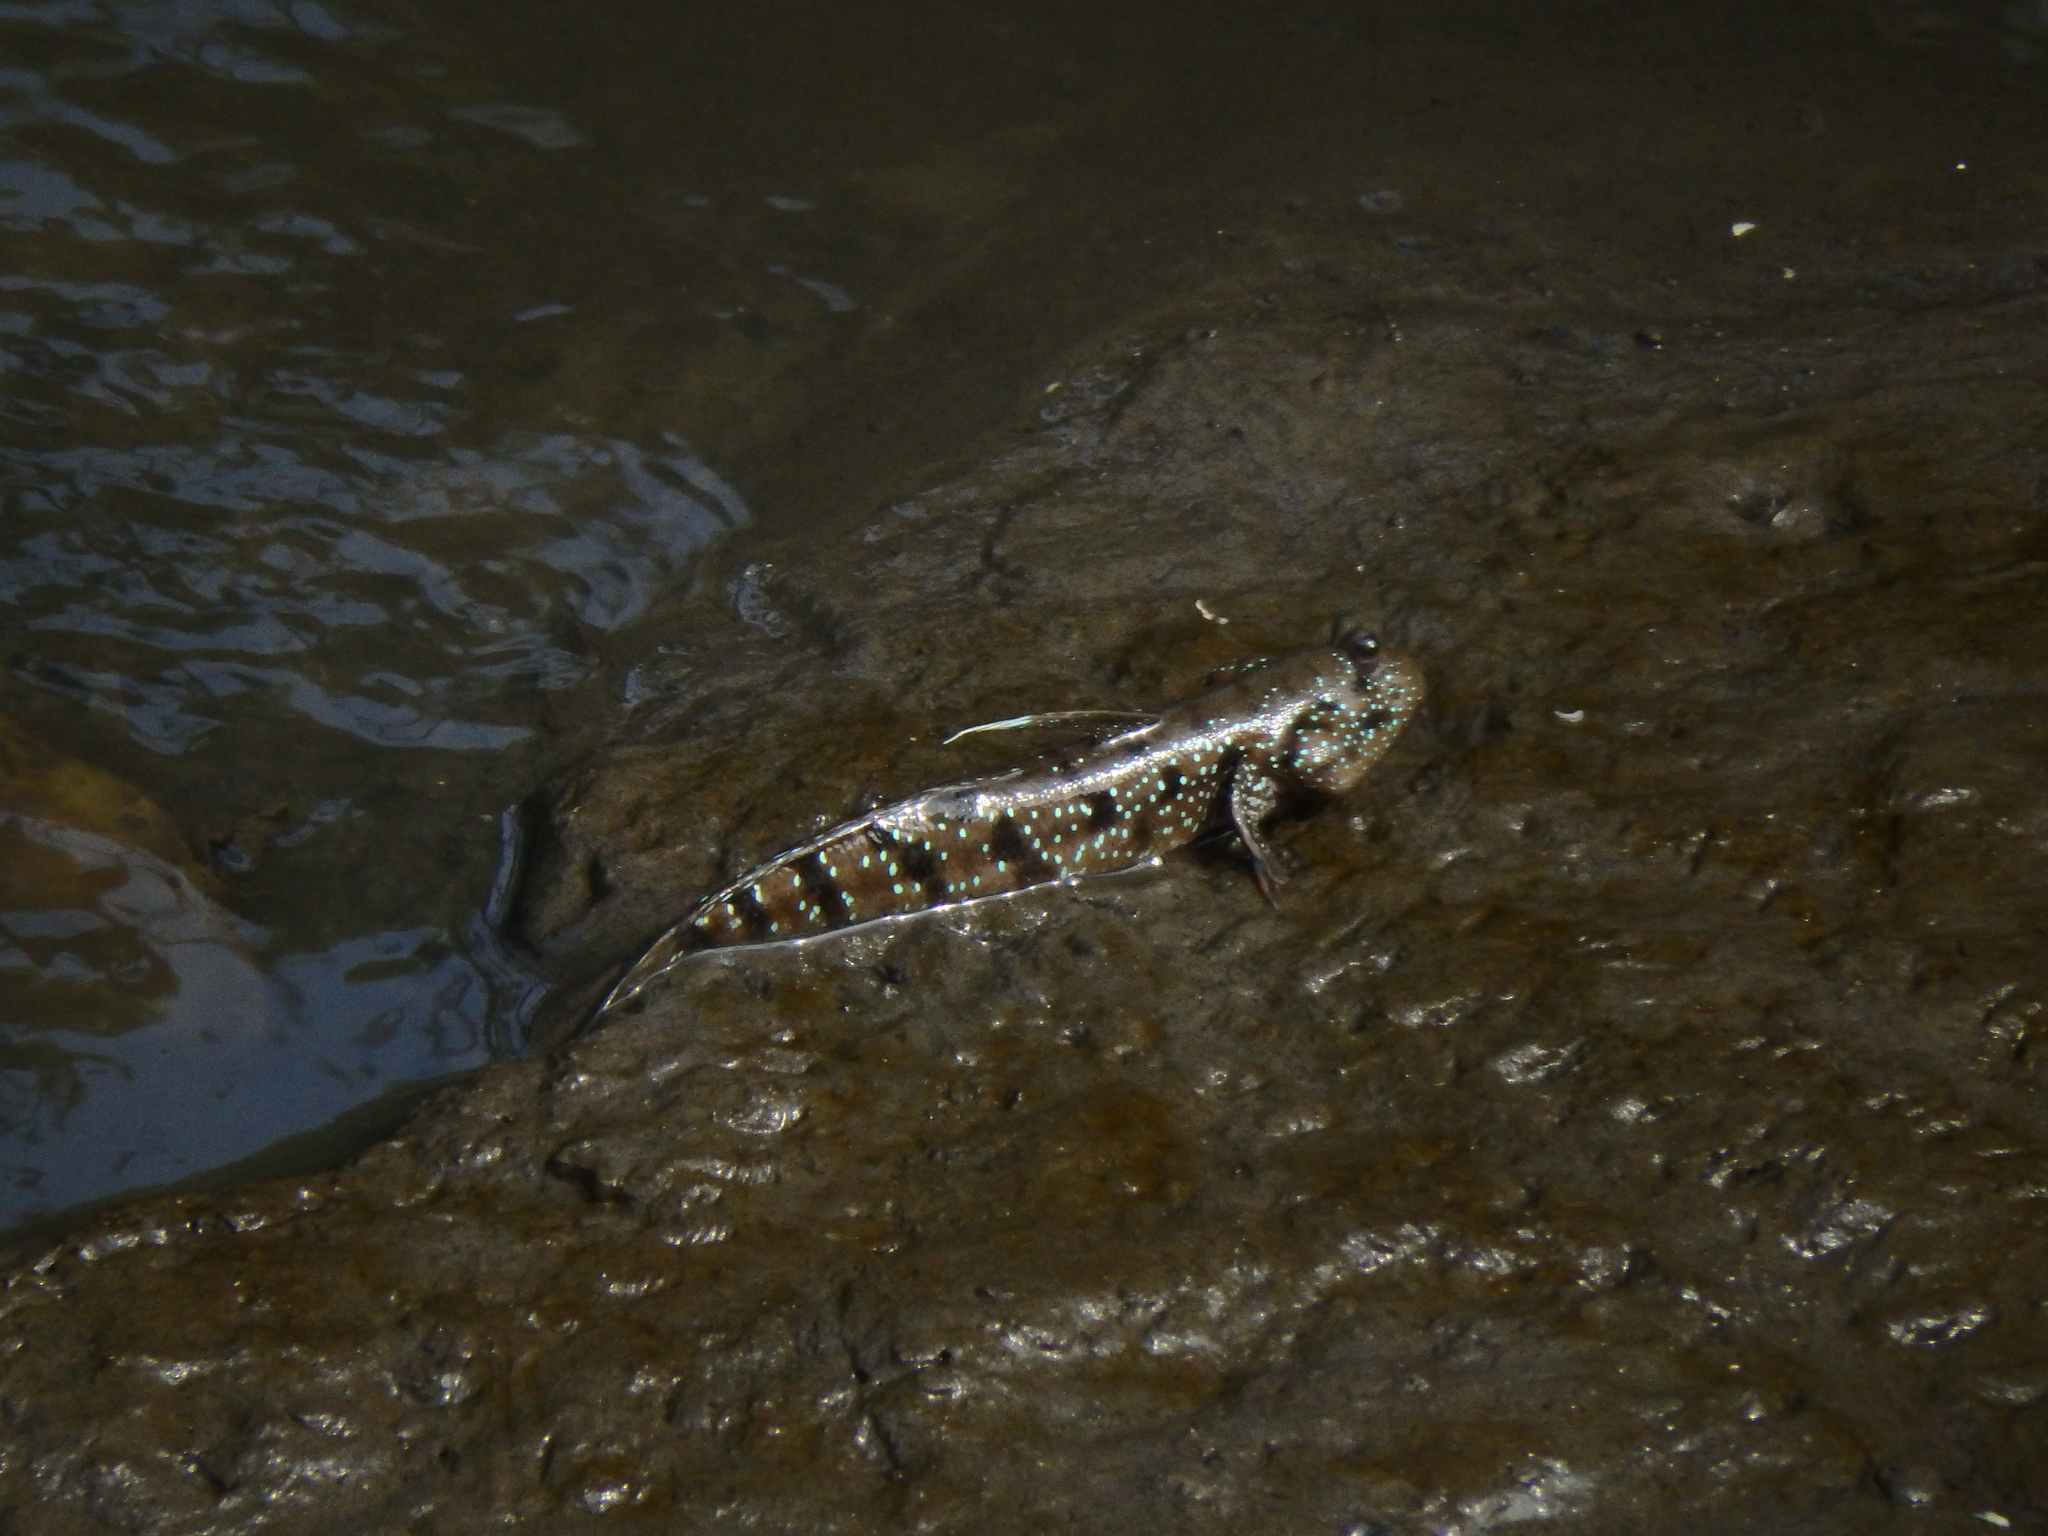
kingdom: Animalia
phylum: Chordata
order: Perciformes
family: Gobiidae
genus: Boleophthalmus
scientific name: Boleophthalmus boddarti
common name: Boddart's goggle-eyed goby
